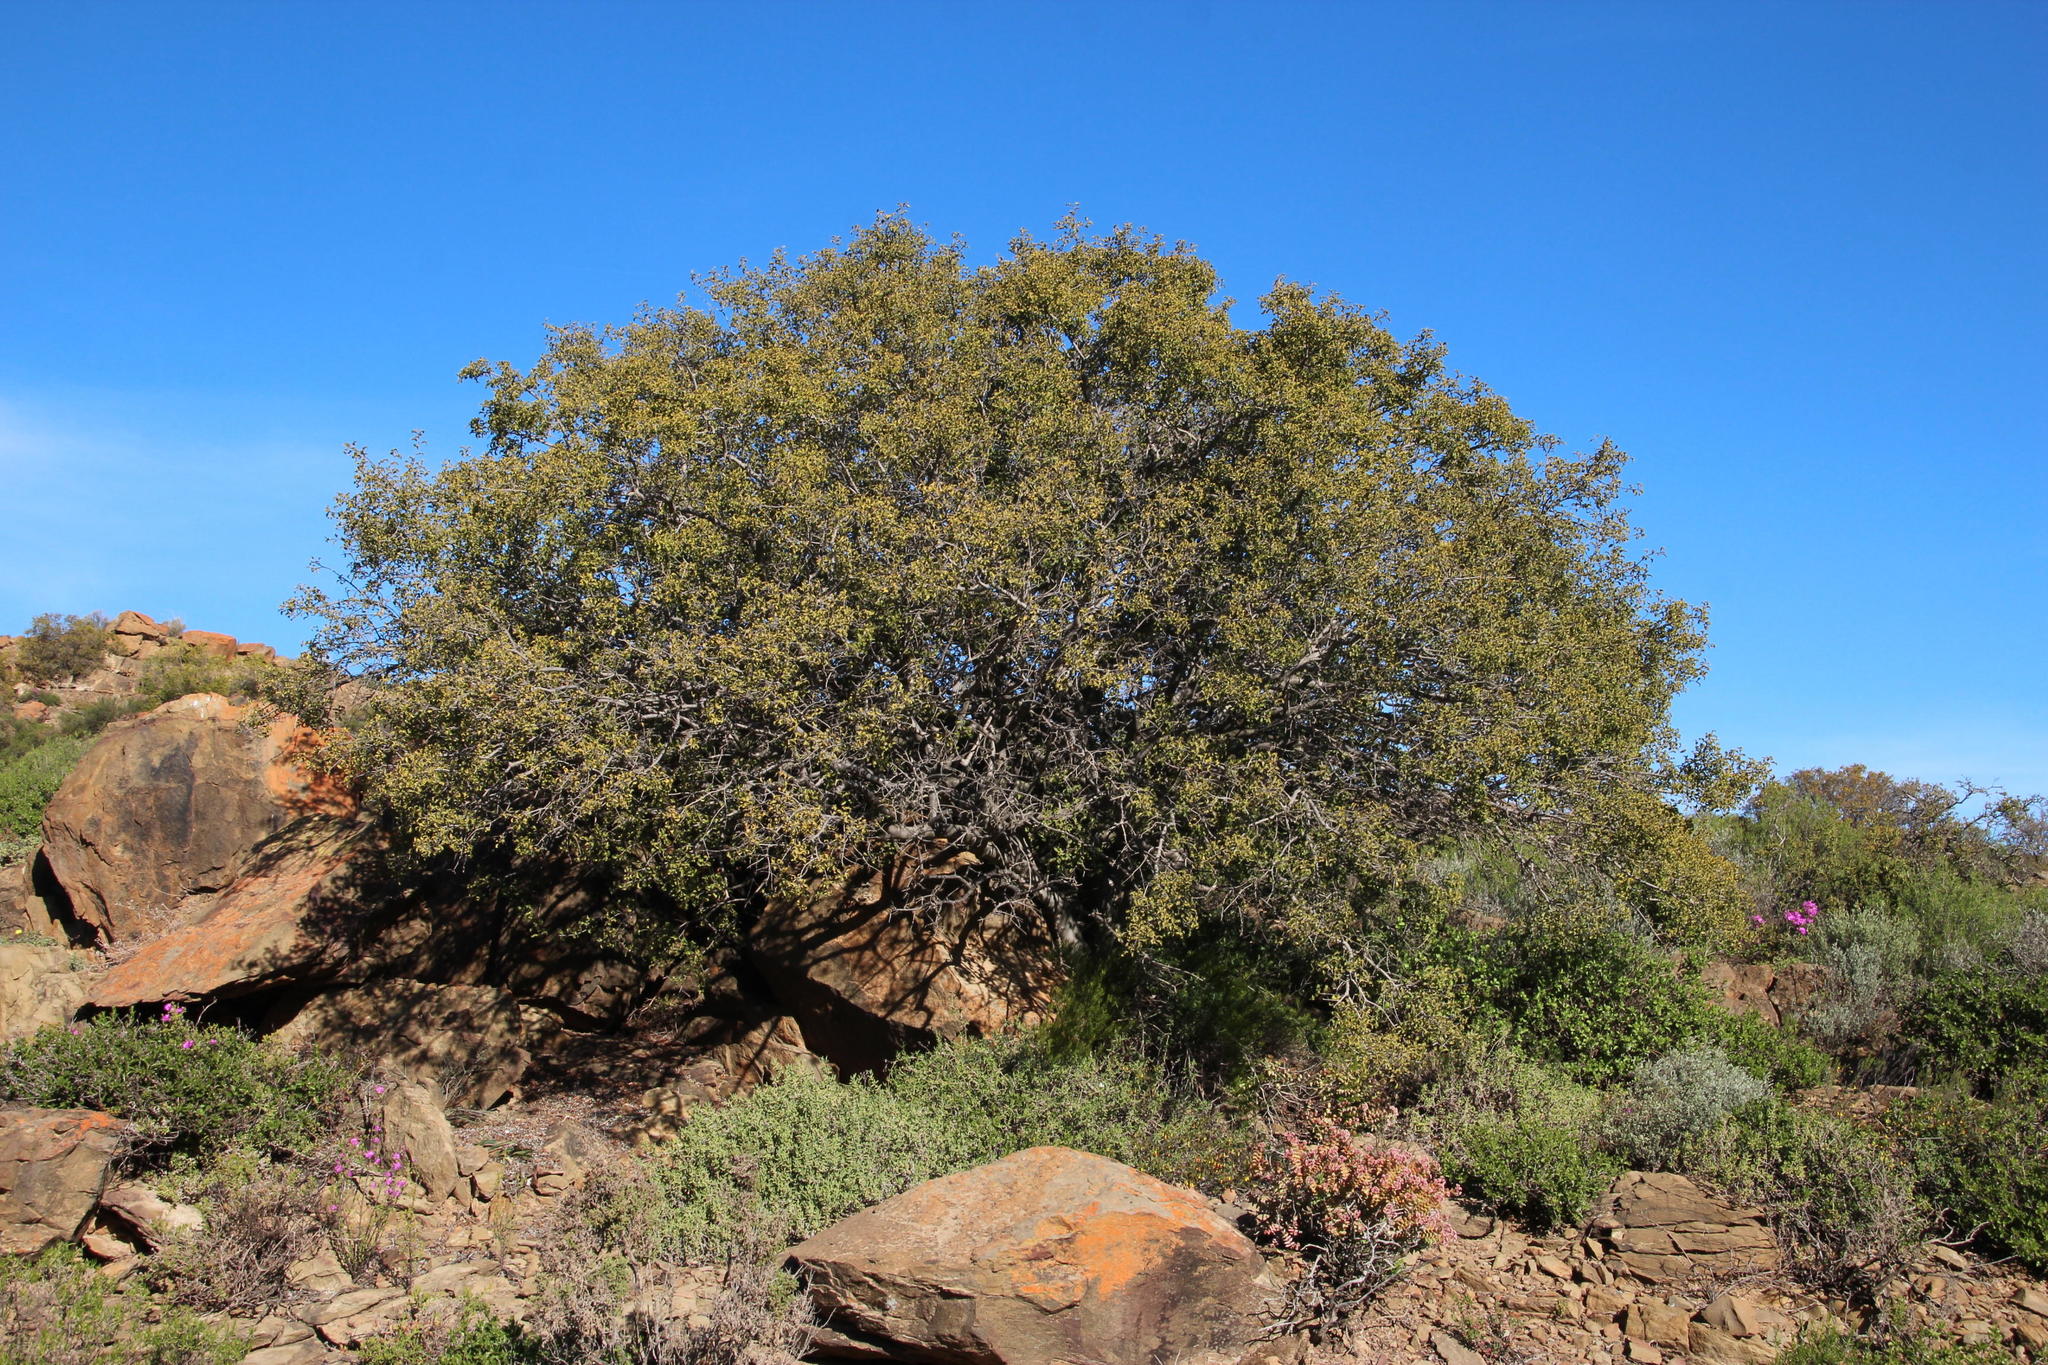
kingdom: Plantae
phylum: Tracheophyta
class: Magnoliopsida
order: Ericales
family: Ebenaceae
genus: Euclea
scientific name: Euclea undulata
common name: Small-leaved guarri
